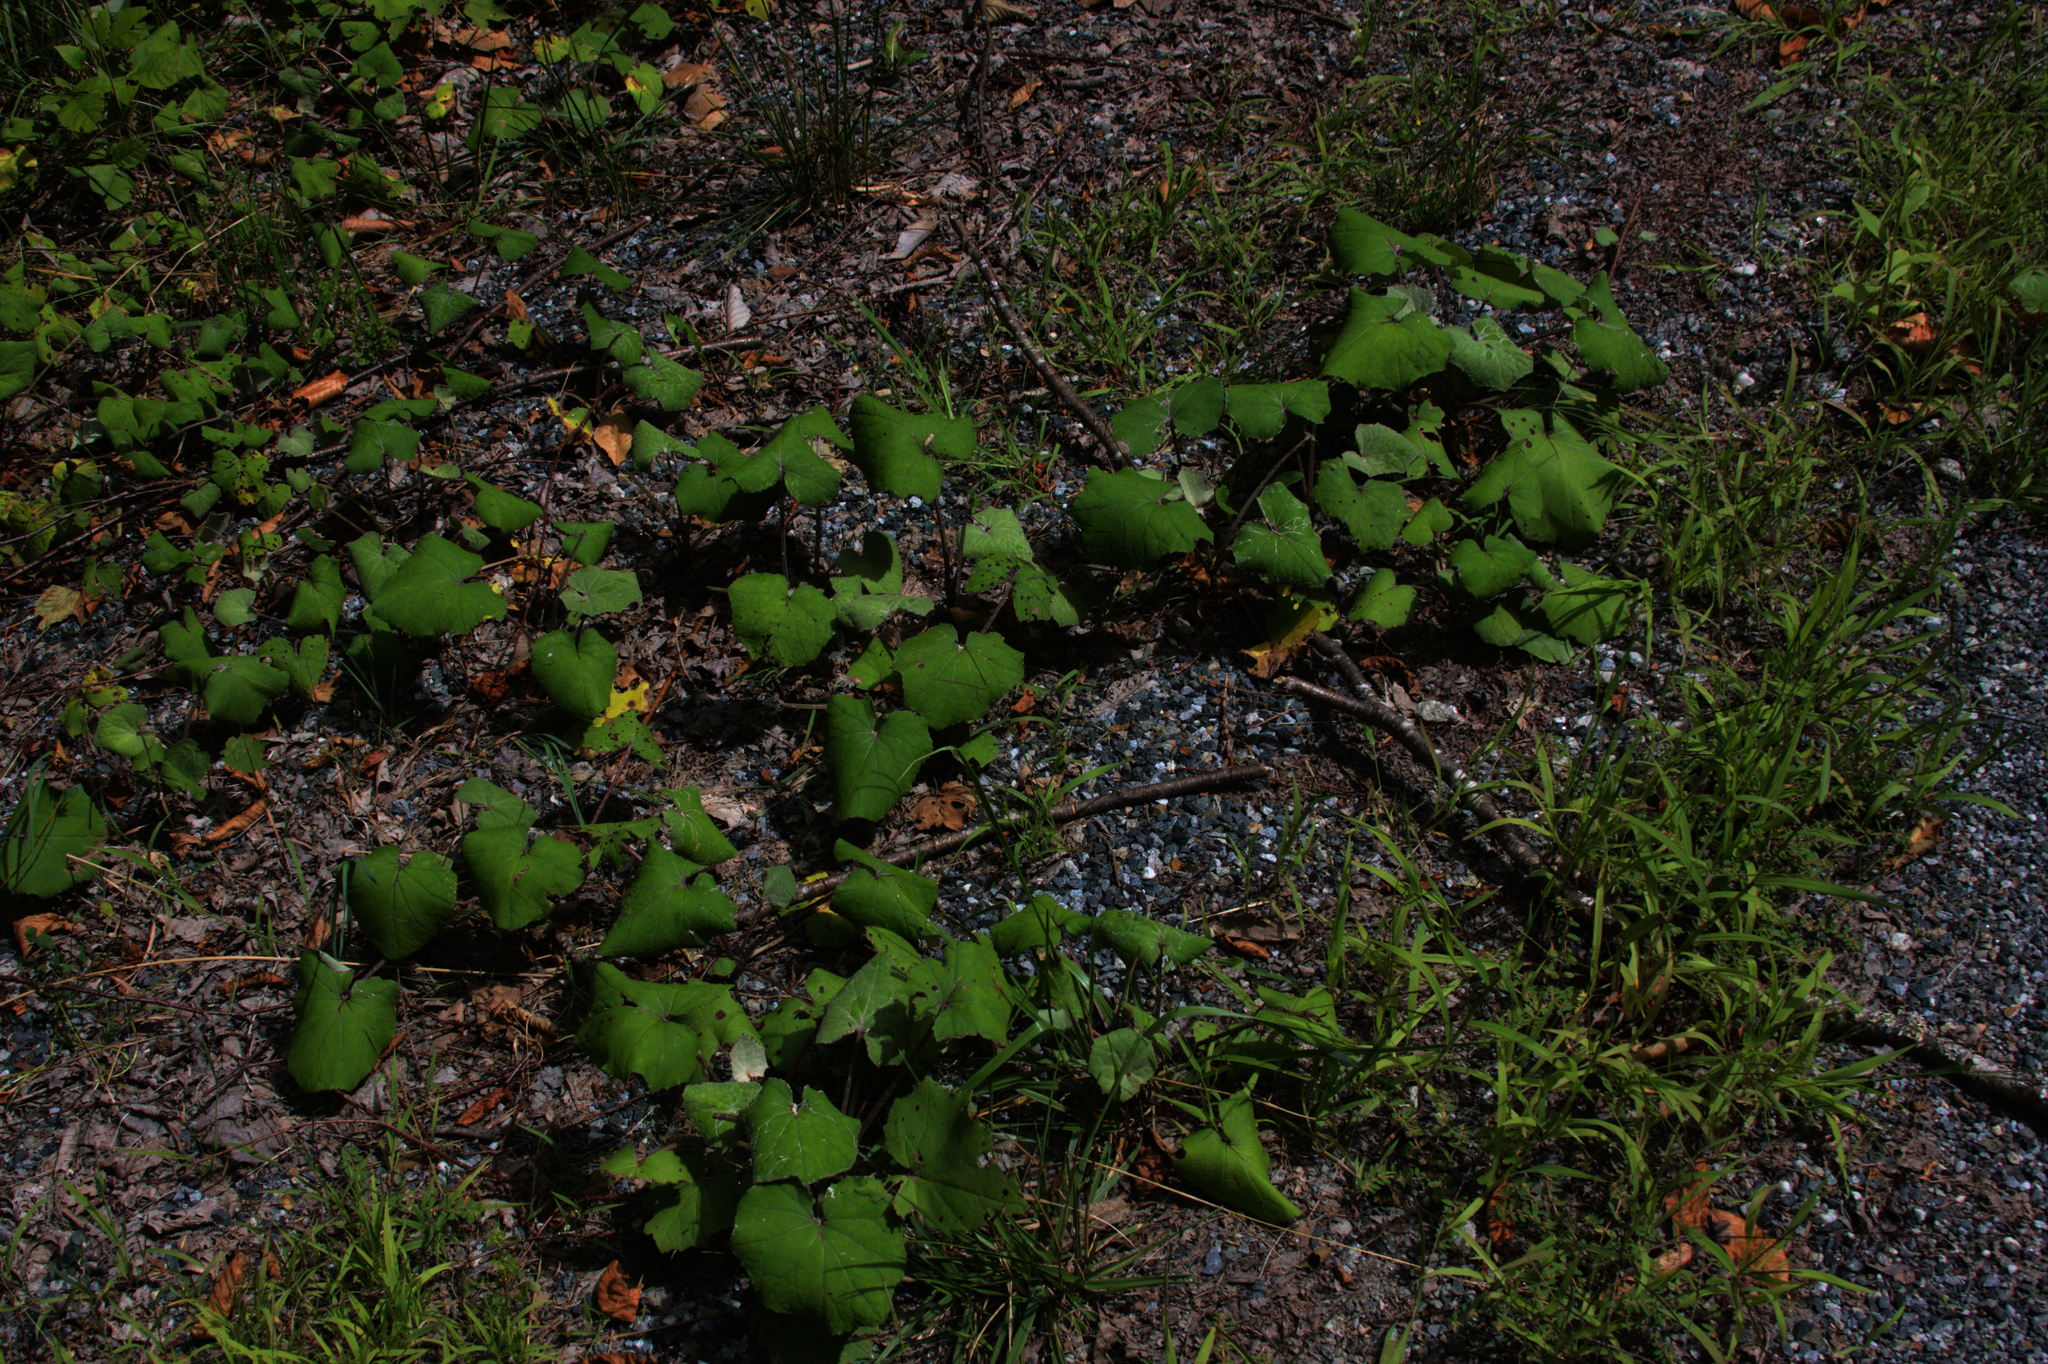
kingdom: Plantae
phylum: Tracheophyta
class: Magnoliopsida
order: Asterales
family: Asteraceae
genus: Tussilago
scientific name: Tussilago farfara
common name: Coltsfoot
